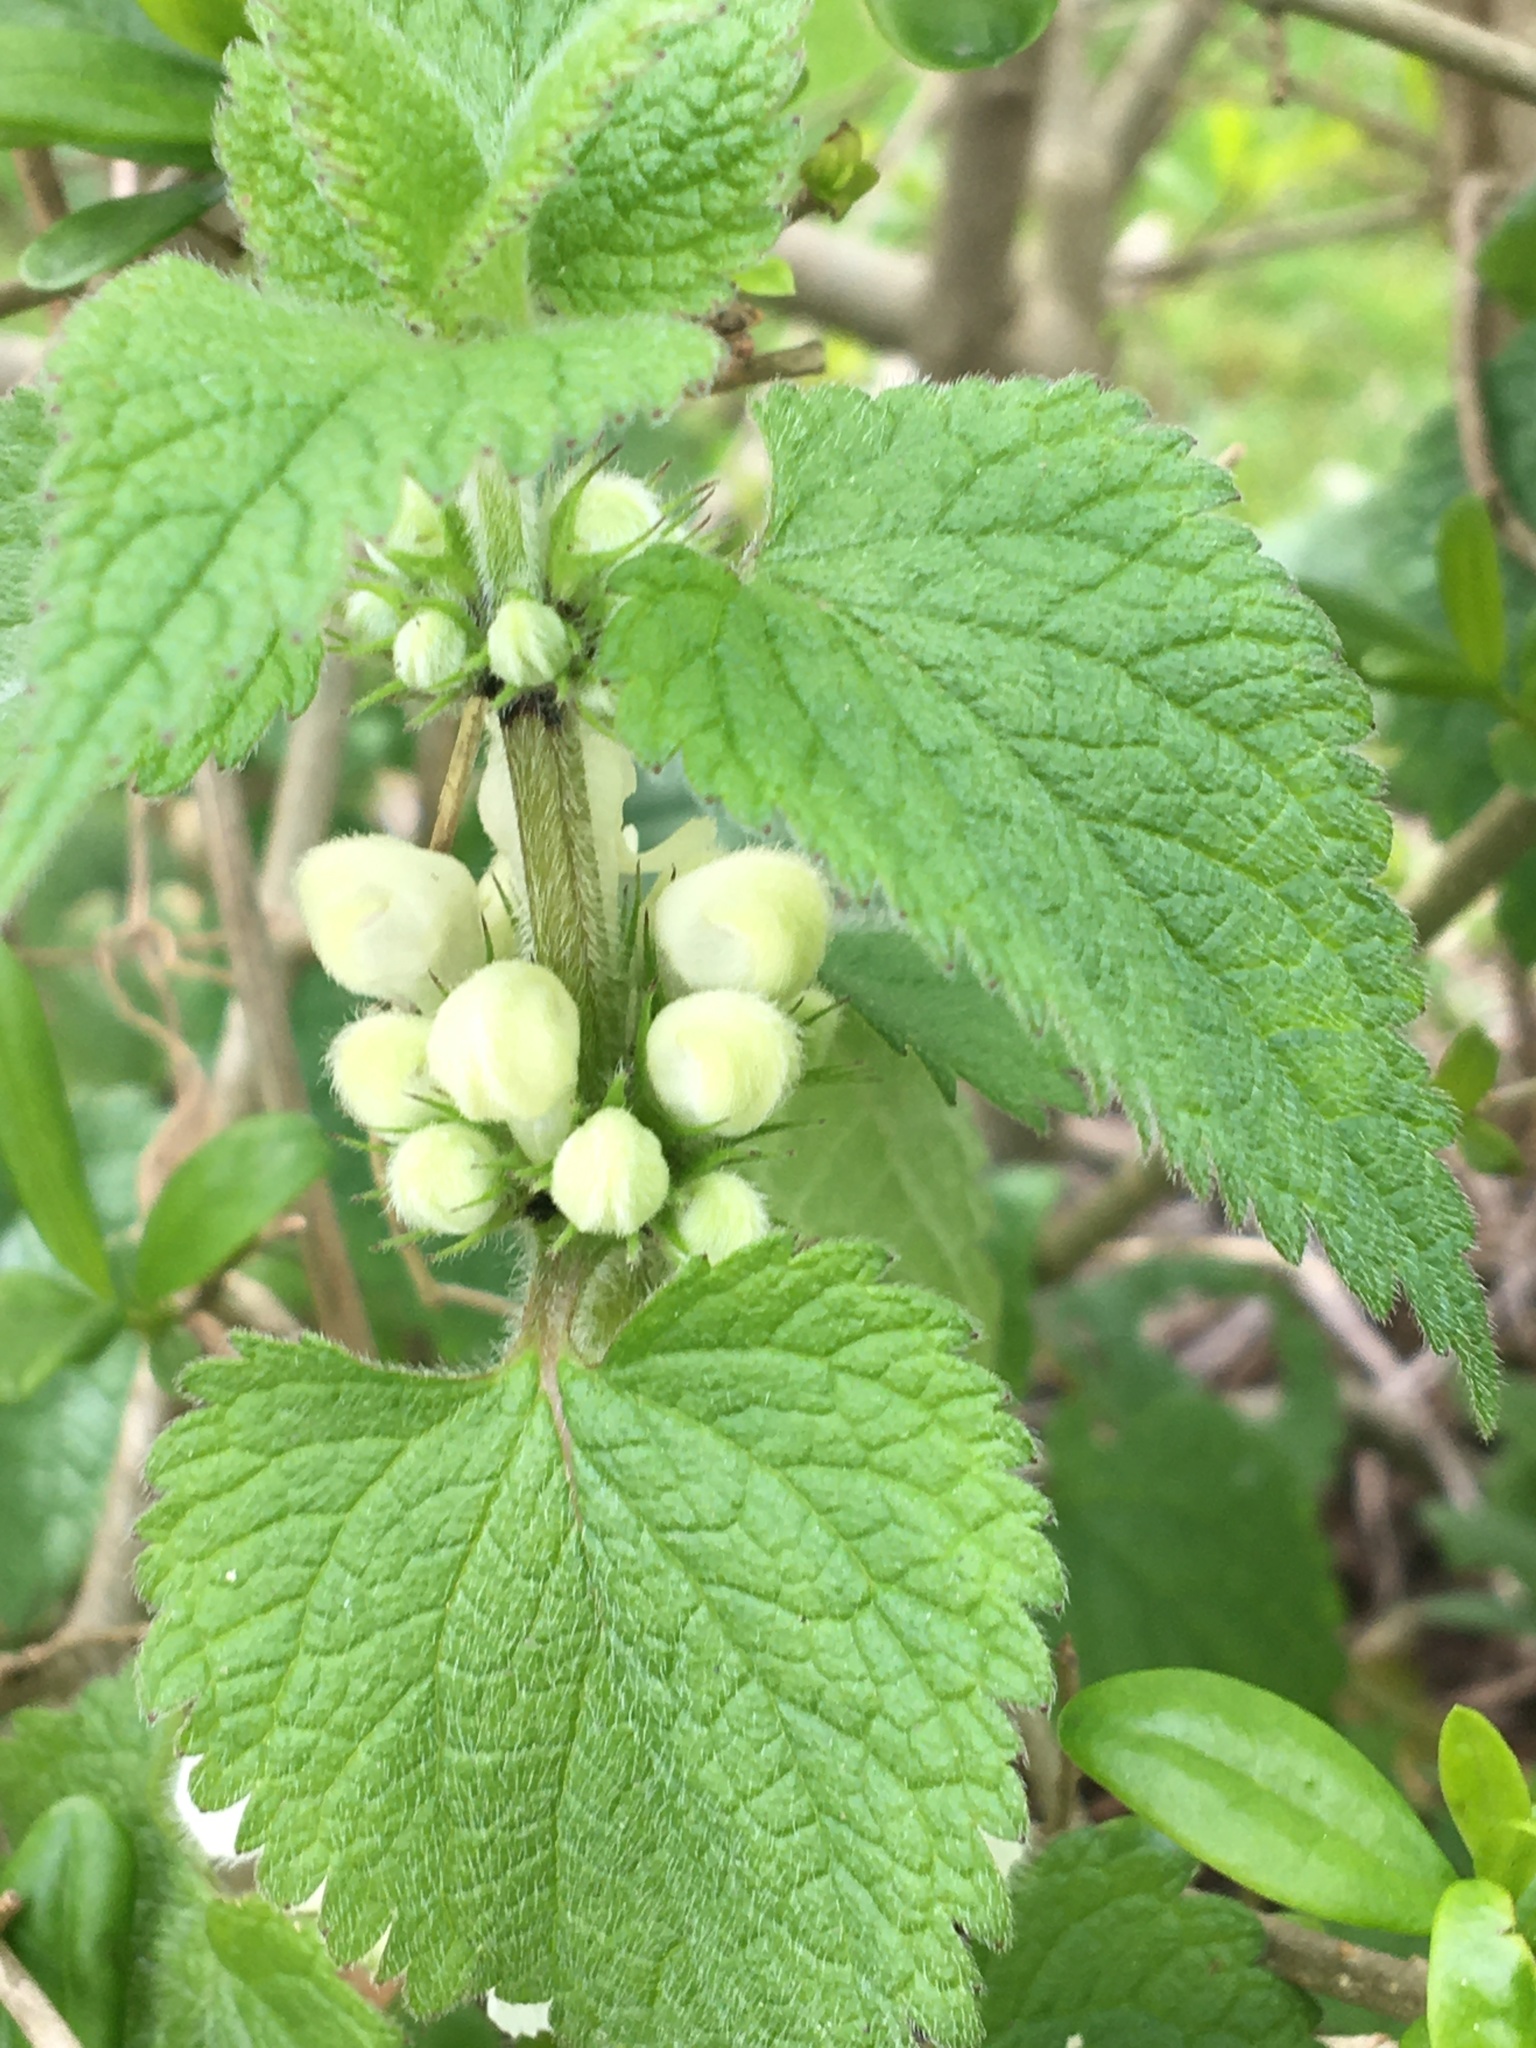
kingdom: Plantae
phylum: Tracheophyta
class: Magnoliopsida
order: Lamiales
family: Lamiaceae
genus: Lamium
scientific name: Lamium album
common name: White dead-nettle
